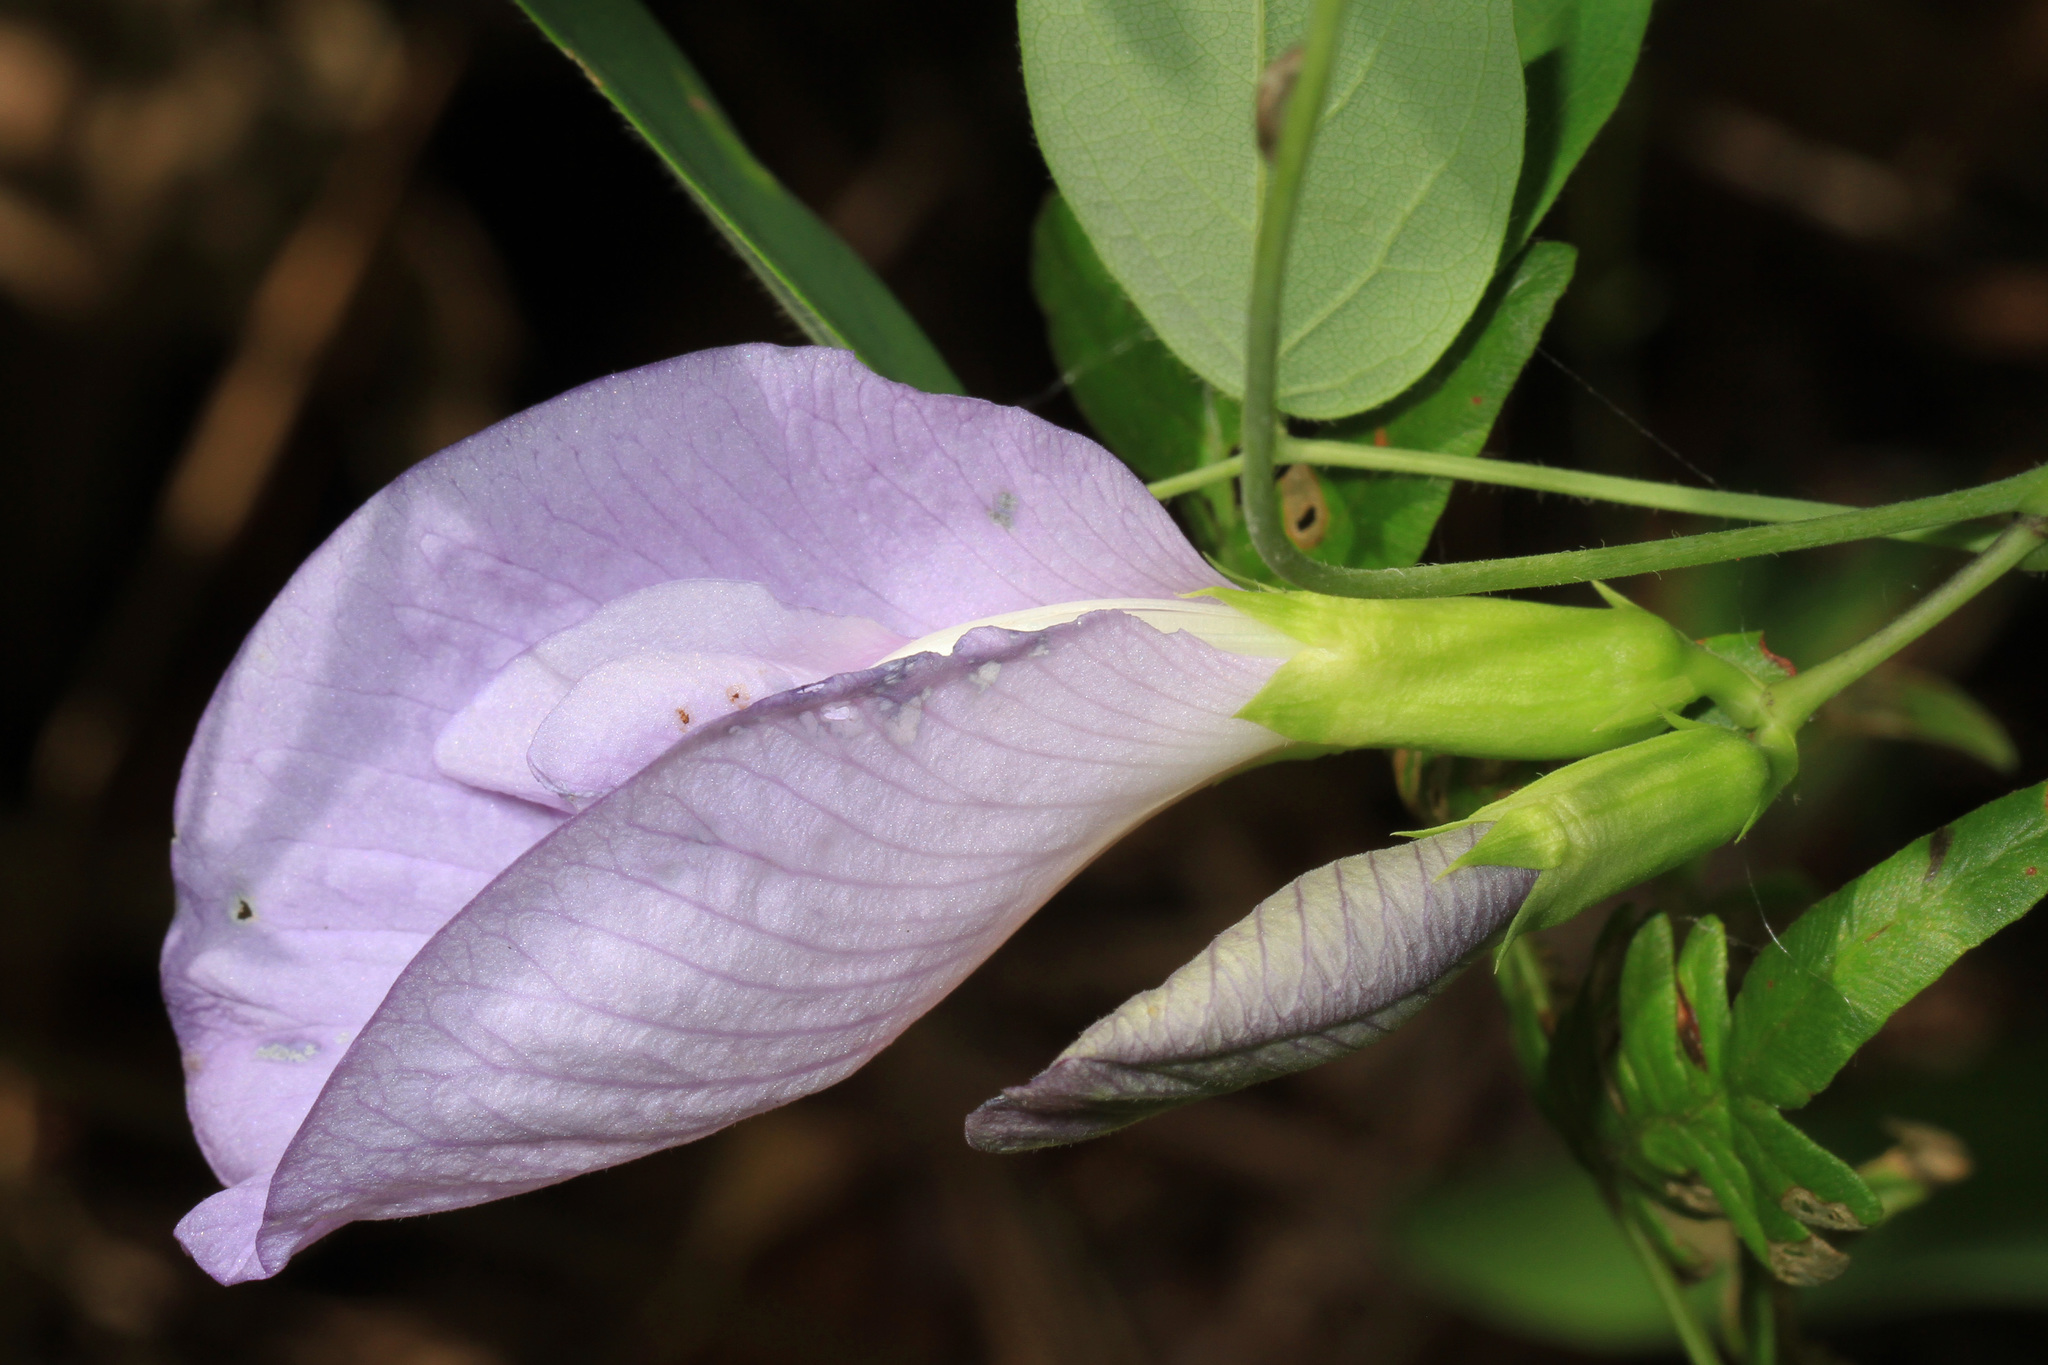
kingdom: Plantae
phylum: Tracheophyta
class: Magnoliopsida
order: Fabales
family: Fabaceae
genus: Clitoria
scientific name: Clitoria mariana
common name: Butterfly-pea
